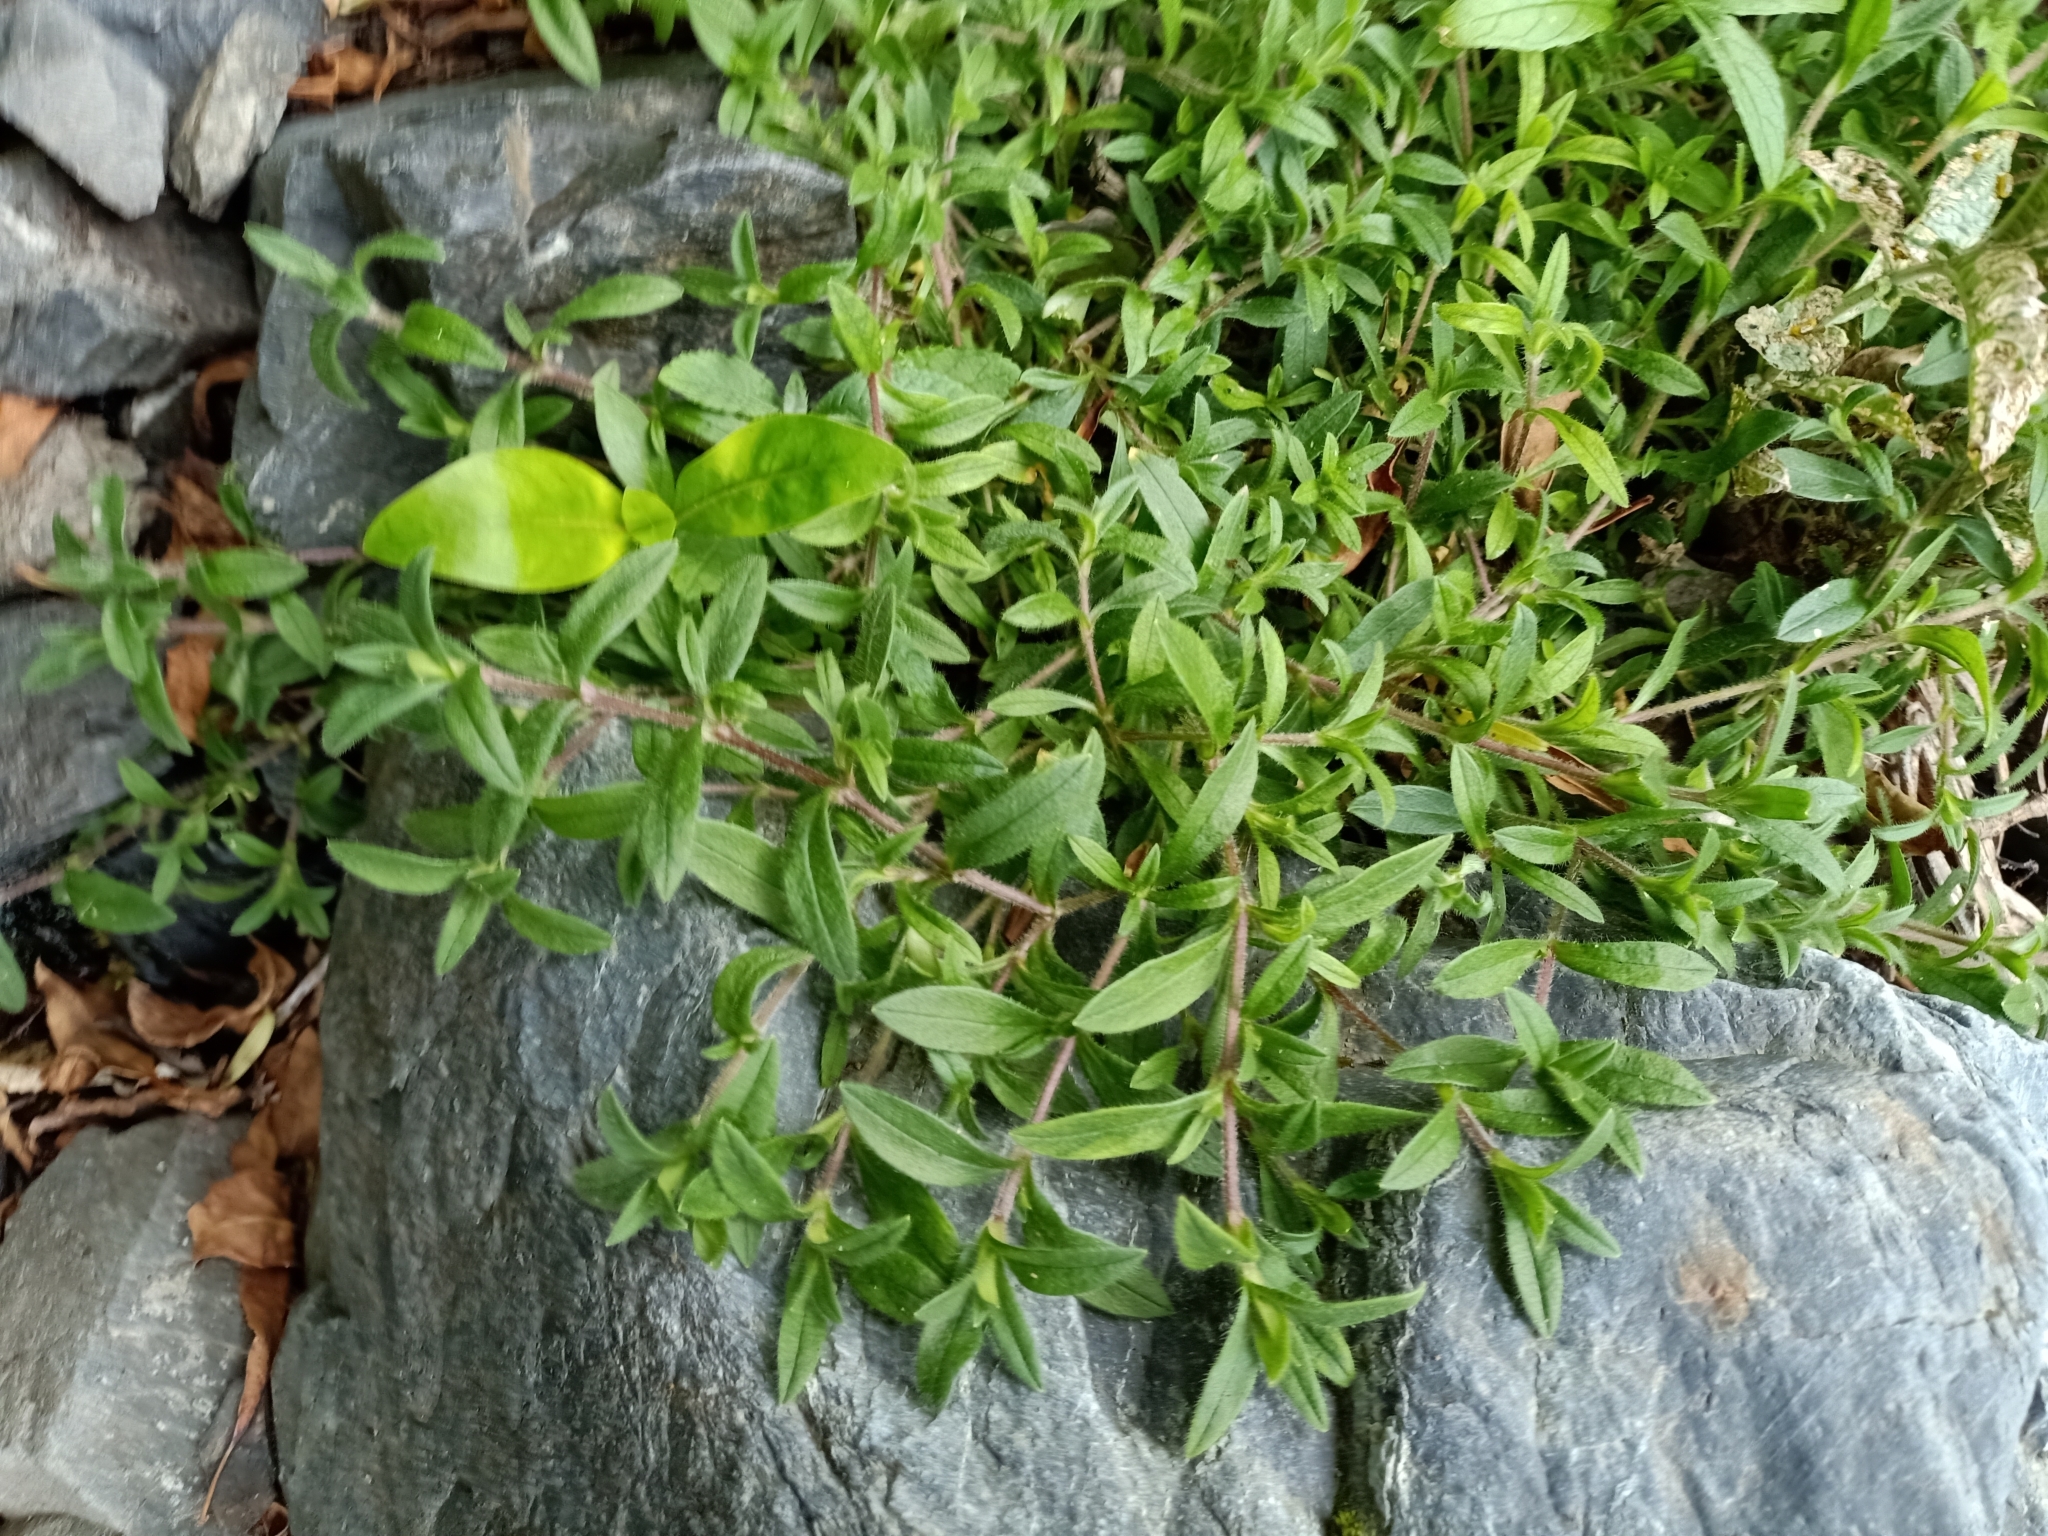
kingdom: Plantae
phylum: Tracheophyta
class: Magnoliopsida
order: Caryophyllales
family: Caryophyllaceae
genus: Cerastium
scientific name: Cerastium fontanum
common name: Common mouse-ear
